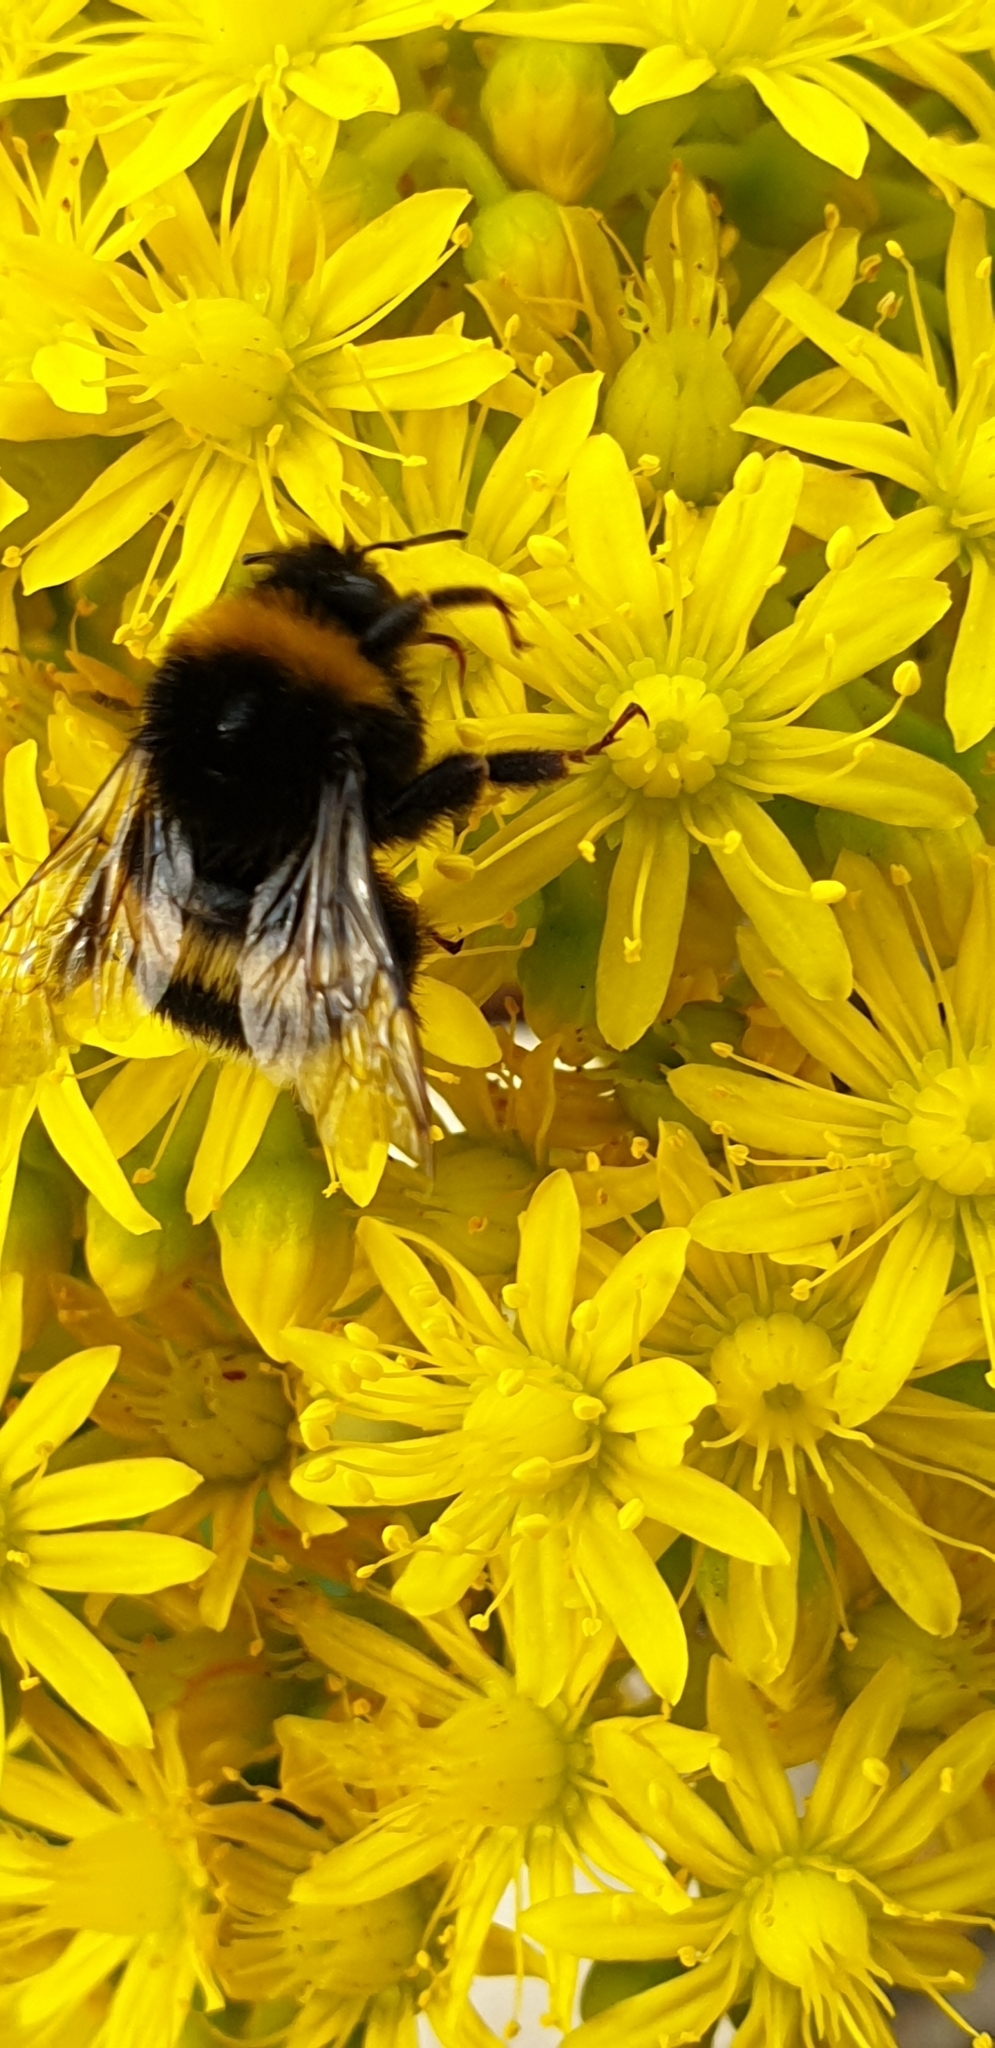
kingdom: Animalia
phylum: Arthropoda
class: Insecta
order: Hymenoptera
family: Apidae
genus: Bombus
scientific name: Bombus terrestris
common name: Buff-tailed bumblebee
